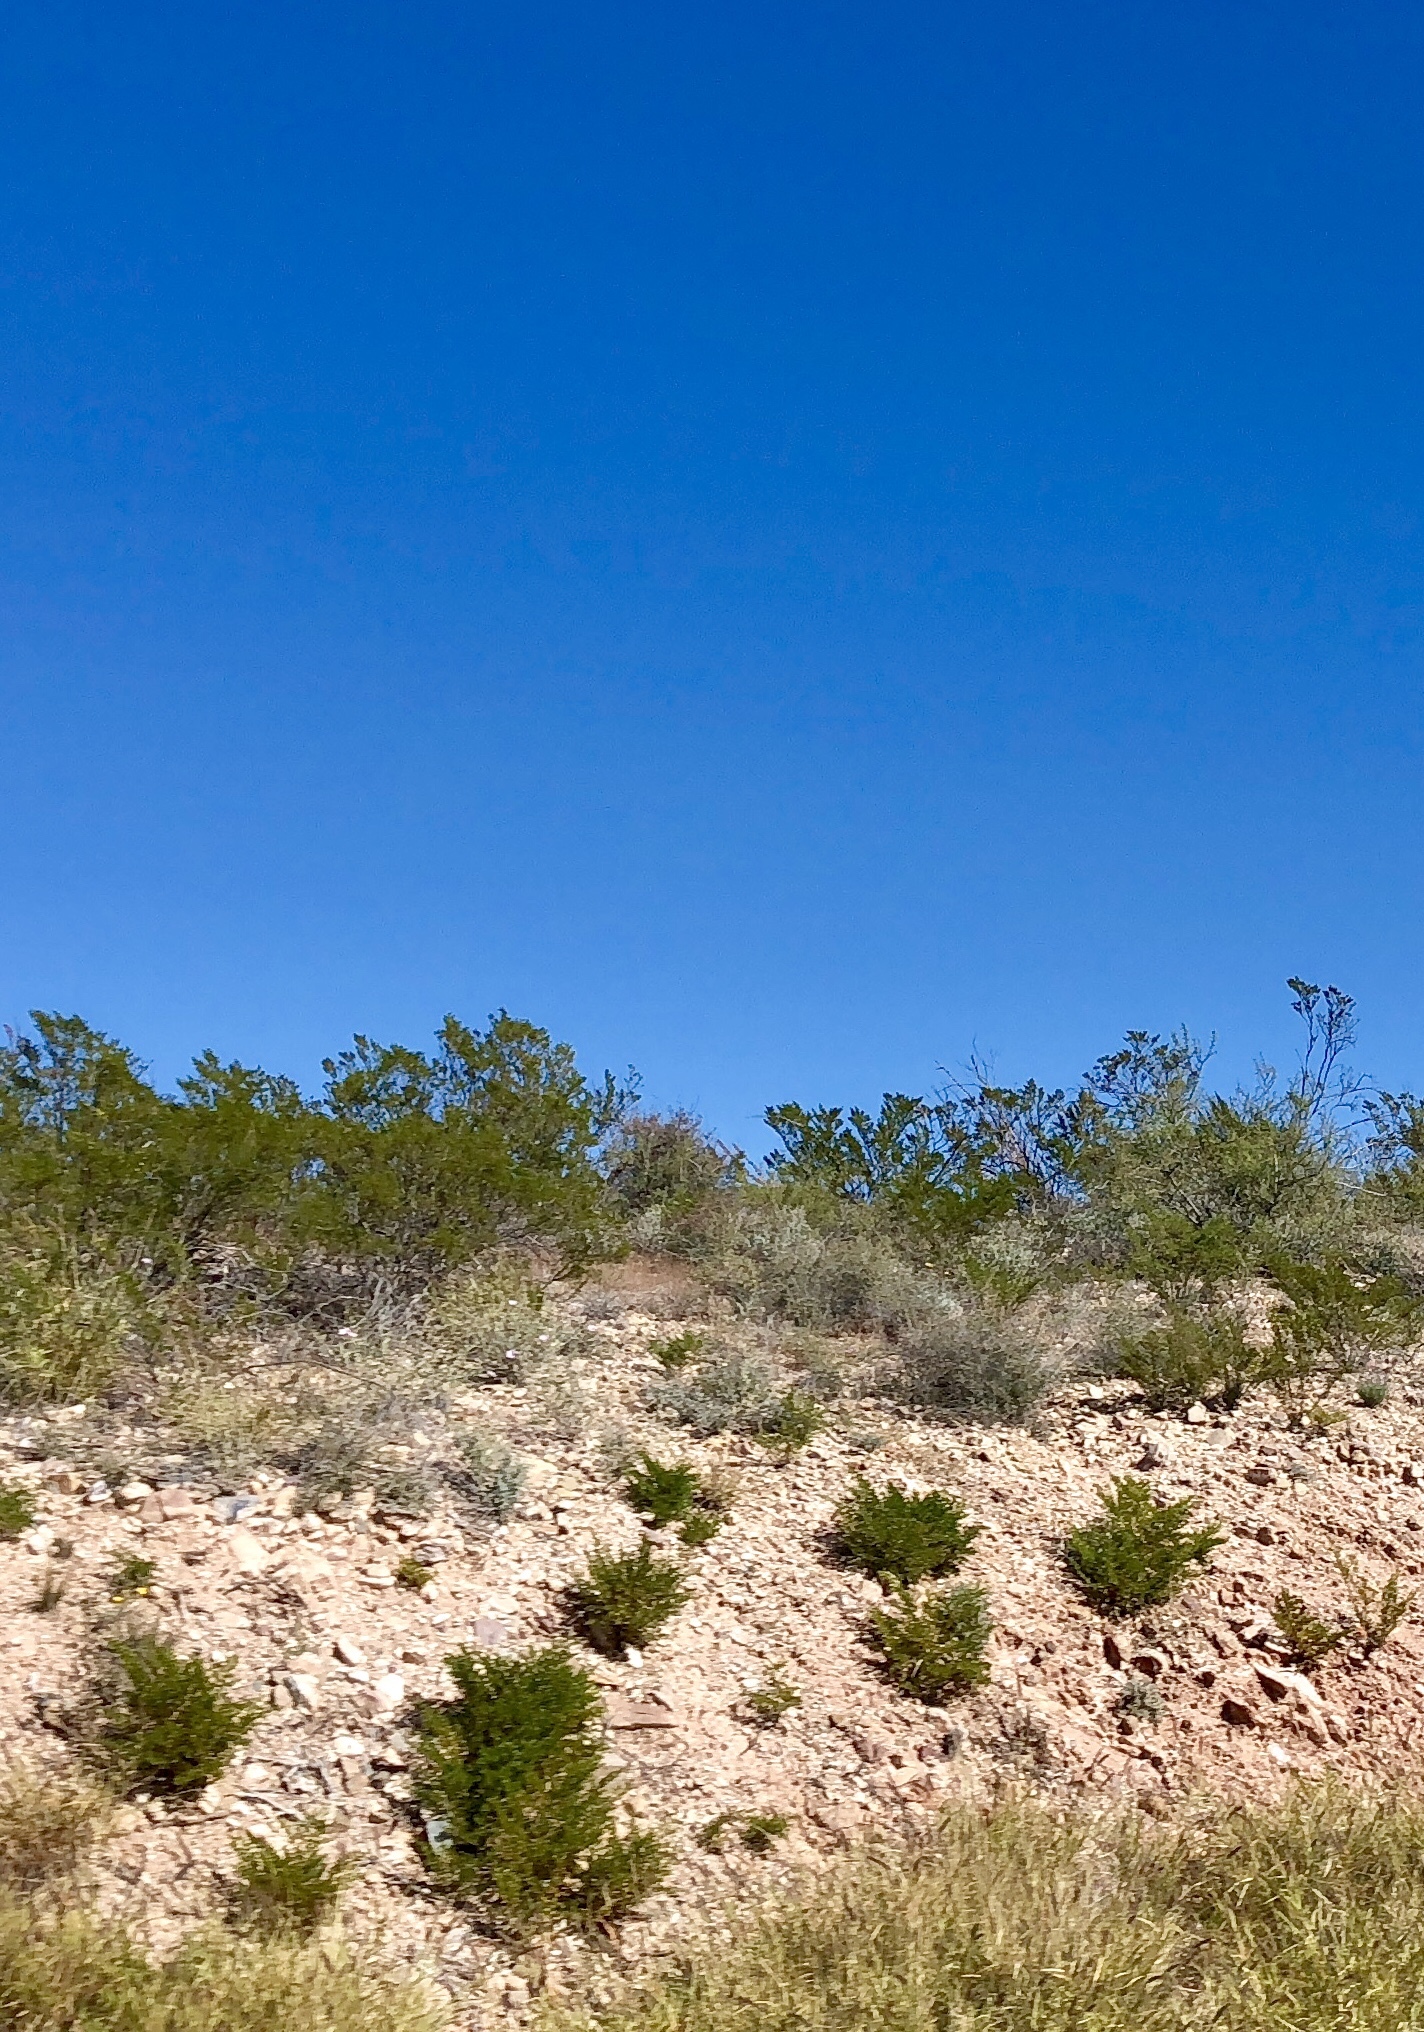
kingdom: Plantae
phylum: Tracheophyta
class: Magnoliopsida
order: Zygophyllales
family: Zygophyllaceae
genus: Larrea
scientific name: Larrea tridentata
